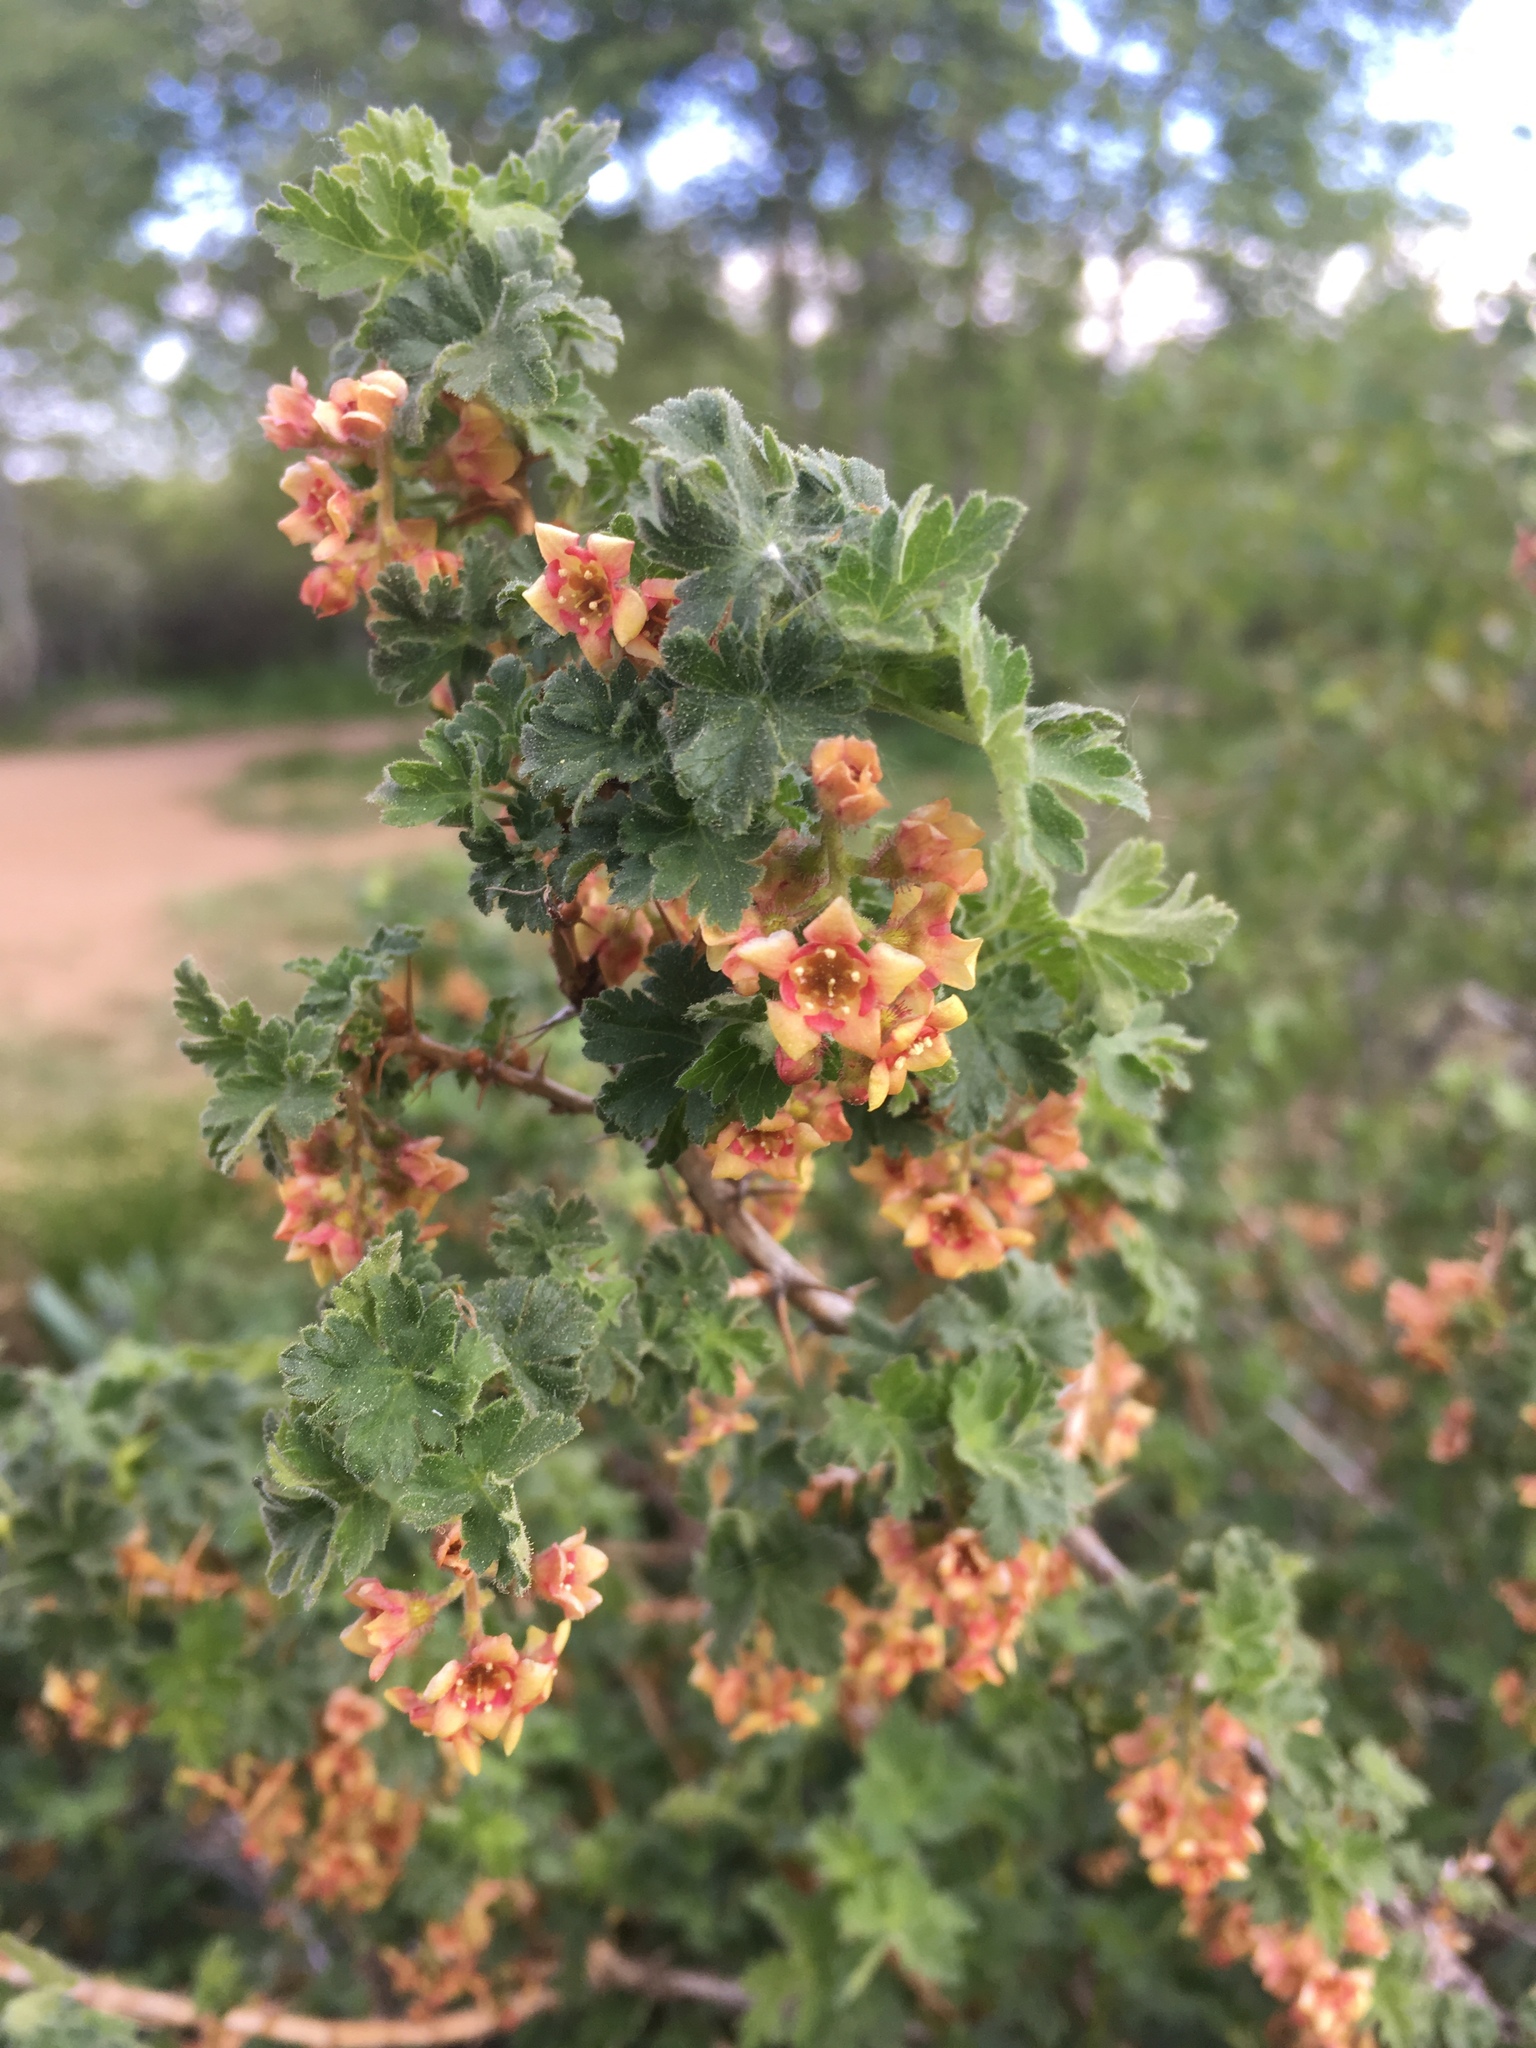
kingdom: Plantae
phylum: Tracheophyta
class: Magnoliopsida
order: Saxifragales
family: Grossulariaceae
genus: Ribes
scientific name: Ribes montigenum
